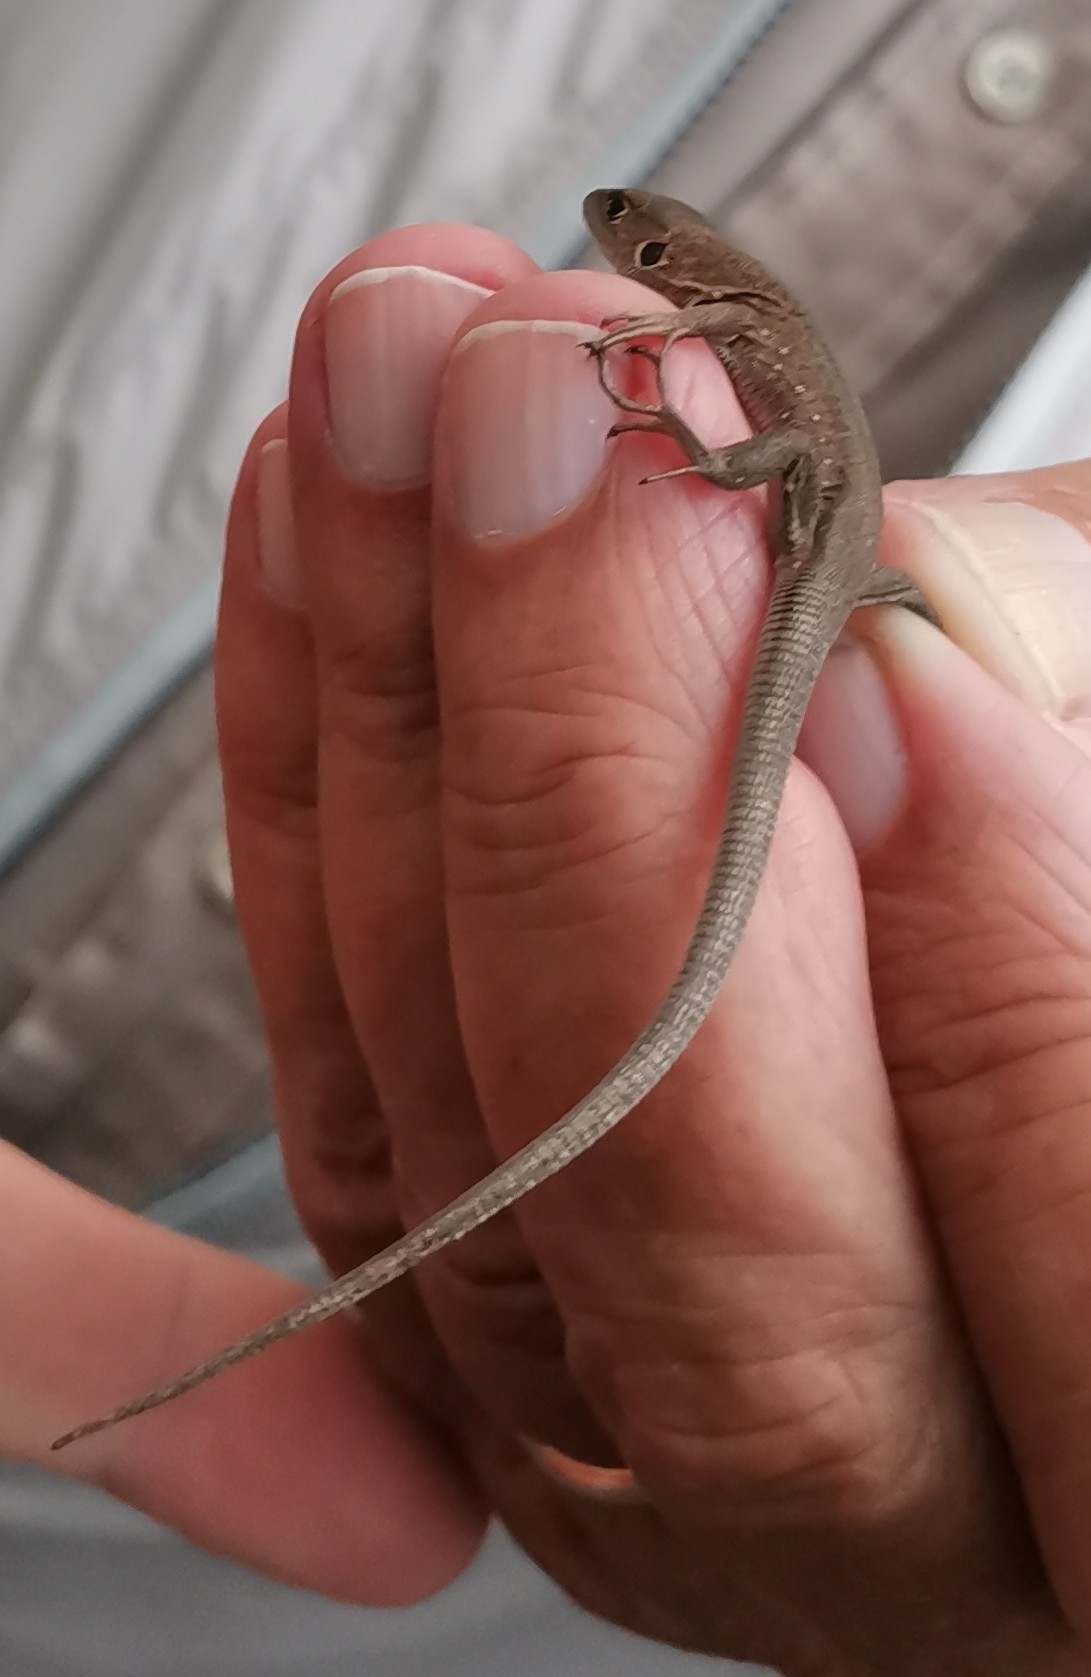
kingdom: Animalia
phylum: Chordata
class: Squamata
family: Lacertidae
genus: Lacerta
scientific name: Lacerta viridis
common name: European green lizard
